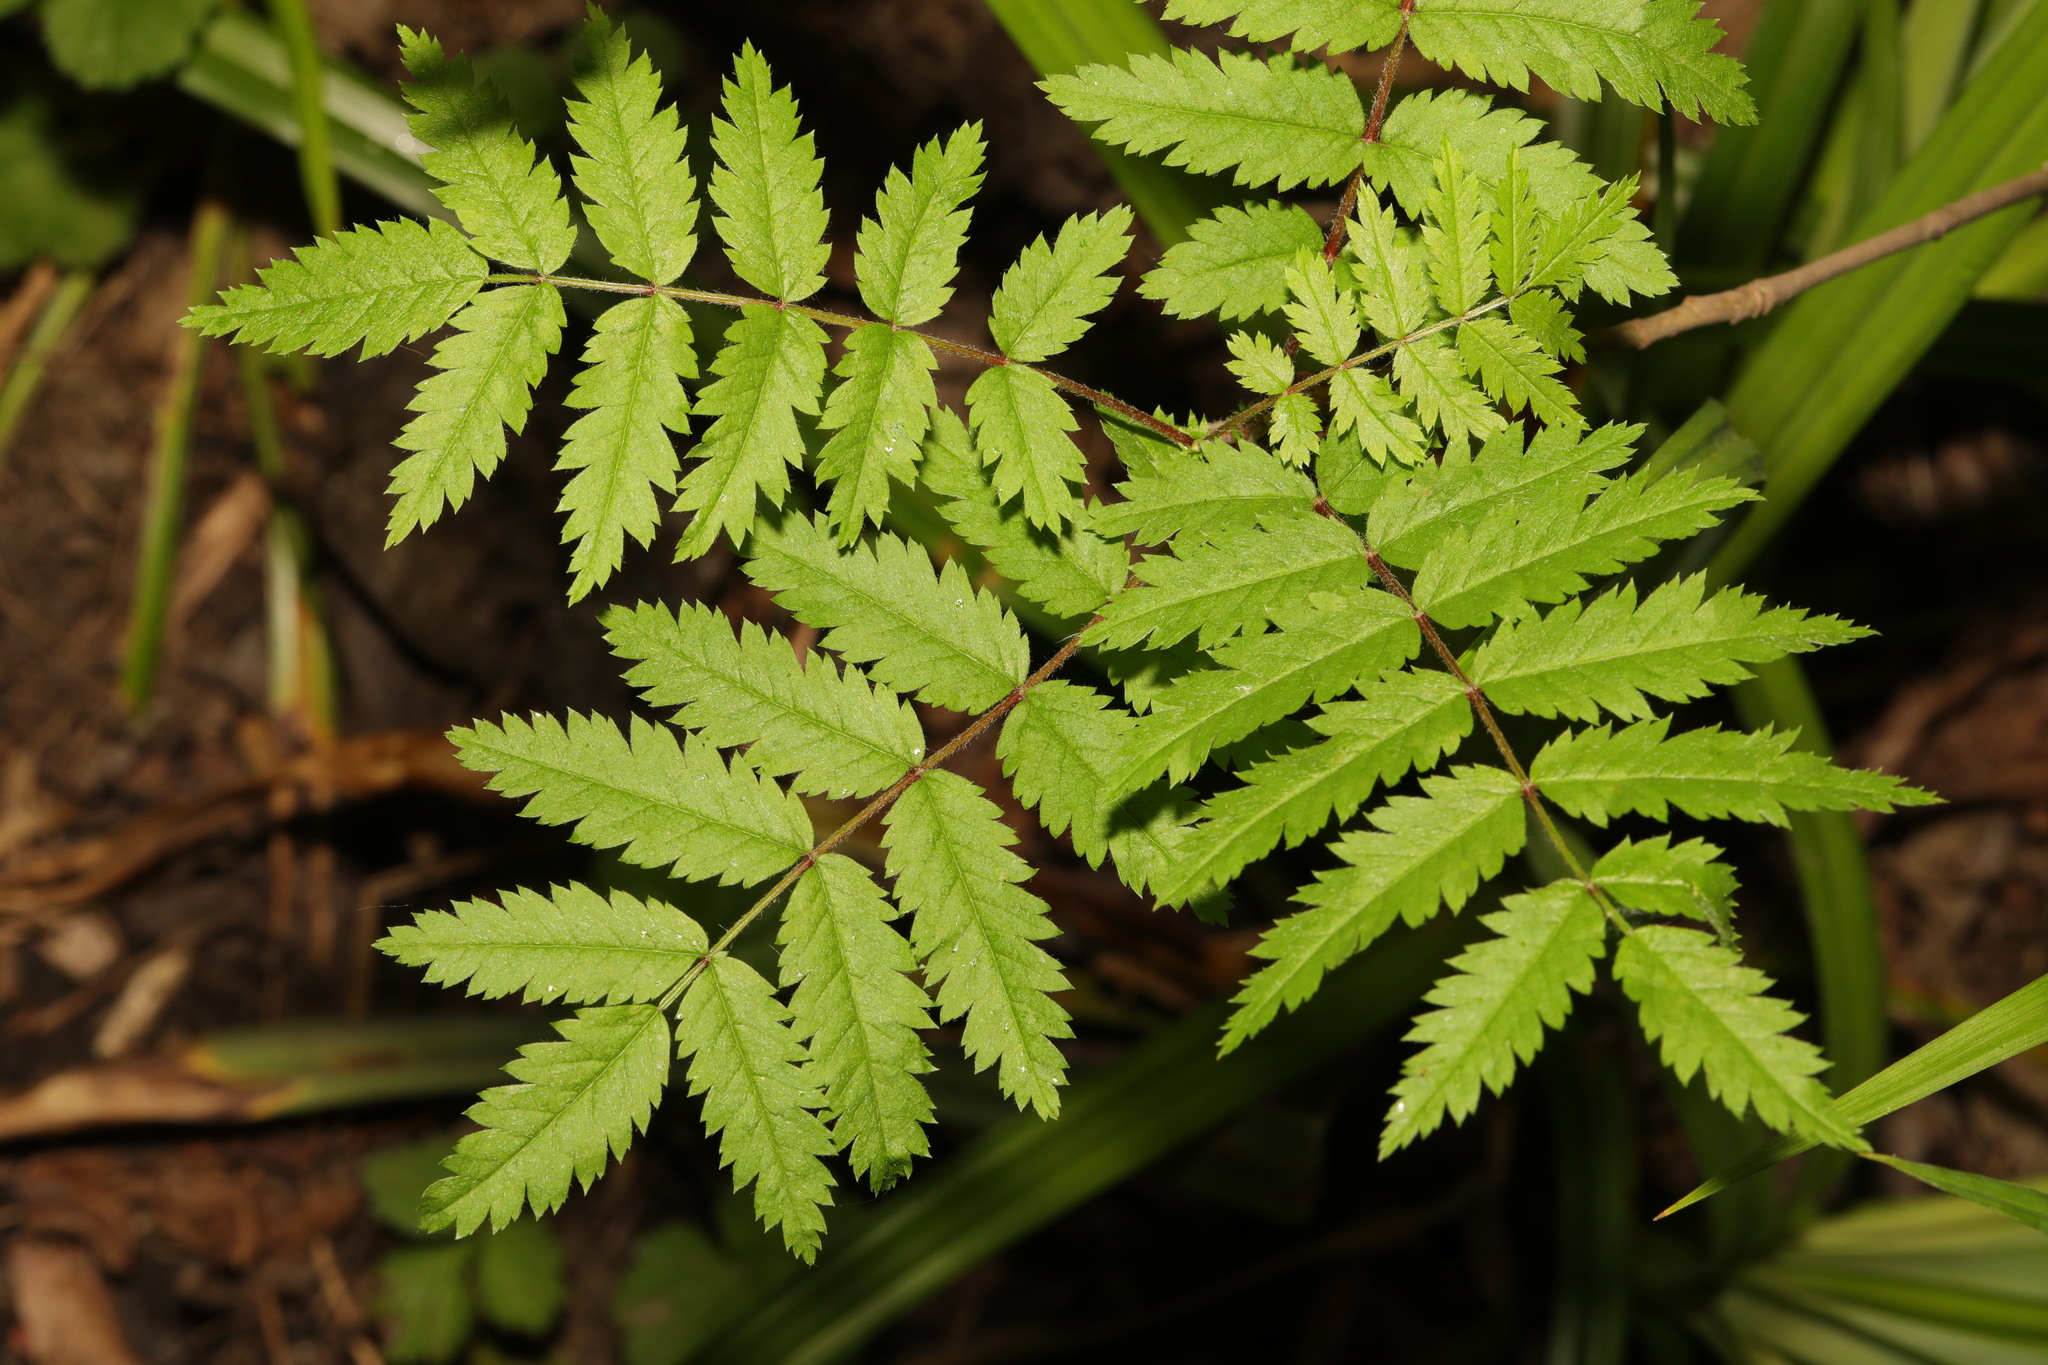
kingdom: Plantae
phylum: Tracheophyta
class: Magnoliopsida
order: Rosales
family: Rosaceae
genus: Sorbus
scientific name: Sorbus aucuparia
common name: Rowan
